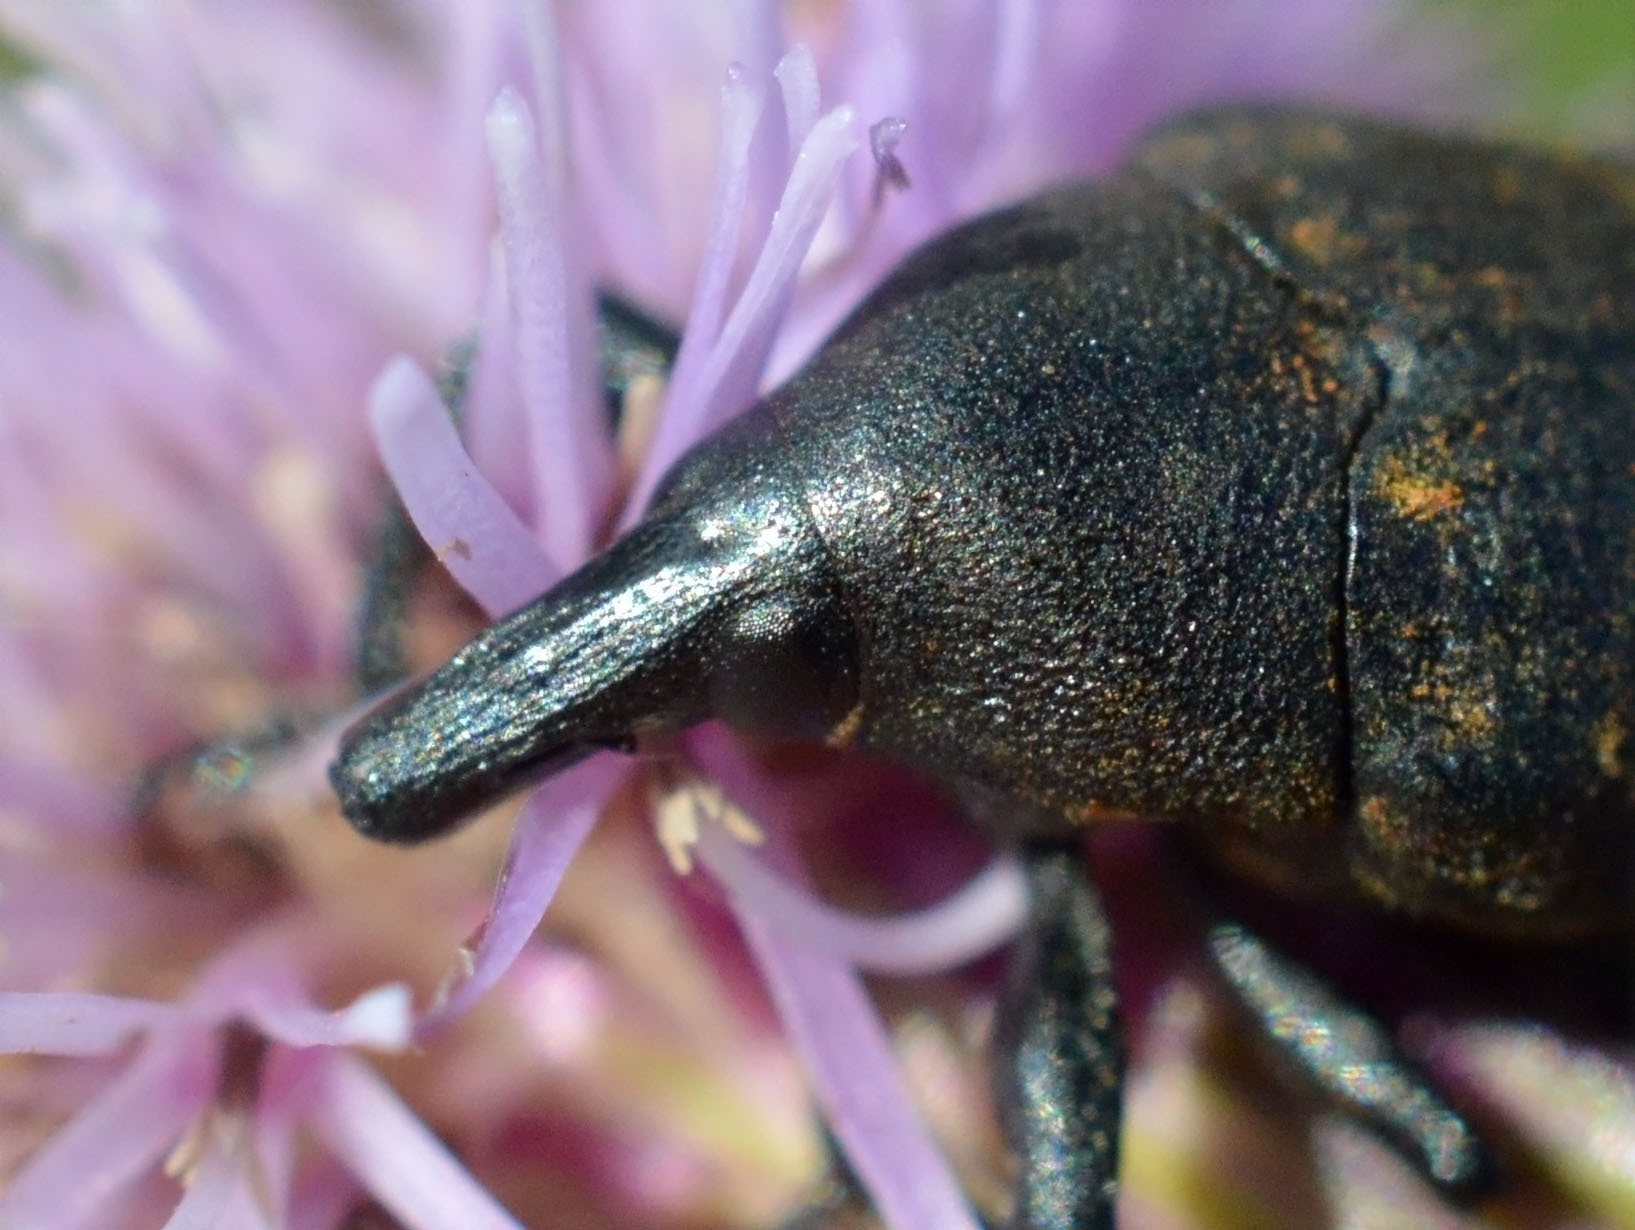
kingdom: Animalia
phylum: Arthropoda
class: Insecta
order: Coleoptera
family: Curculionidae
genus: Larinus
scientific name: Larinus turbinatus
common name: Weevil
